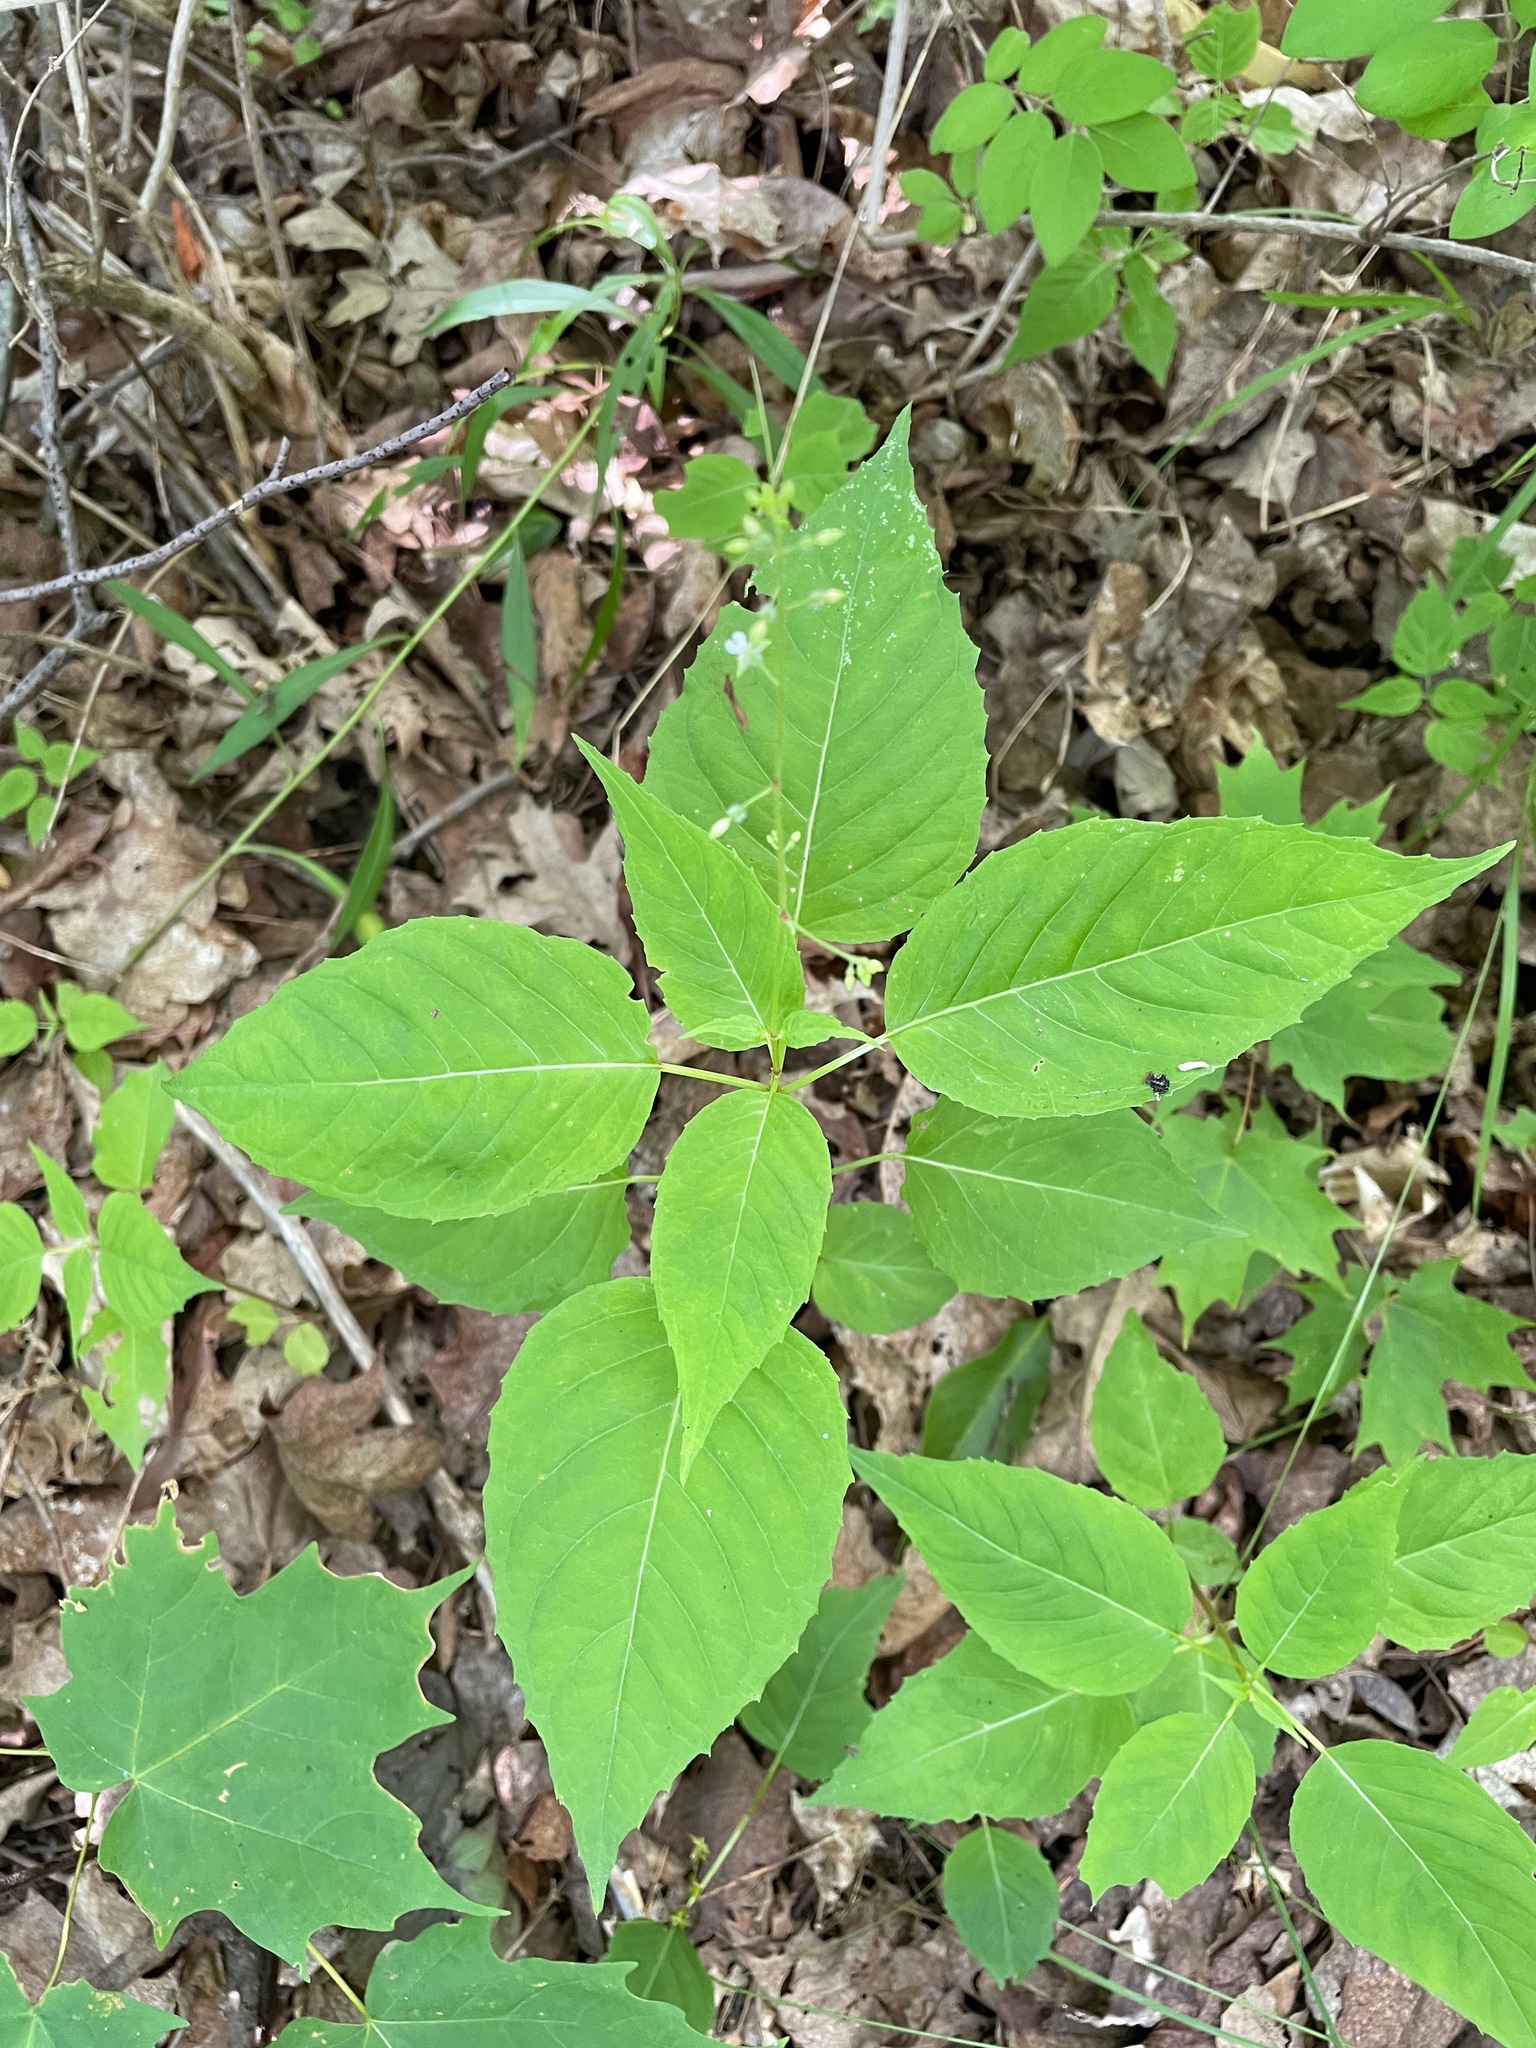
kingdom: Plantae
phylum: Tracheophyta
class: Magnoliopsida
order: Myrtales
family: Onagraceae
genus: Circaea
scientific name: Circaea canadensis
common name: Broad-leaved enchanter's nightshade
